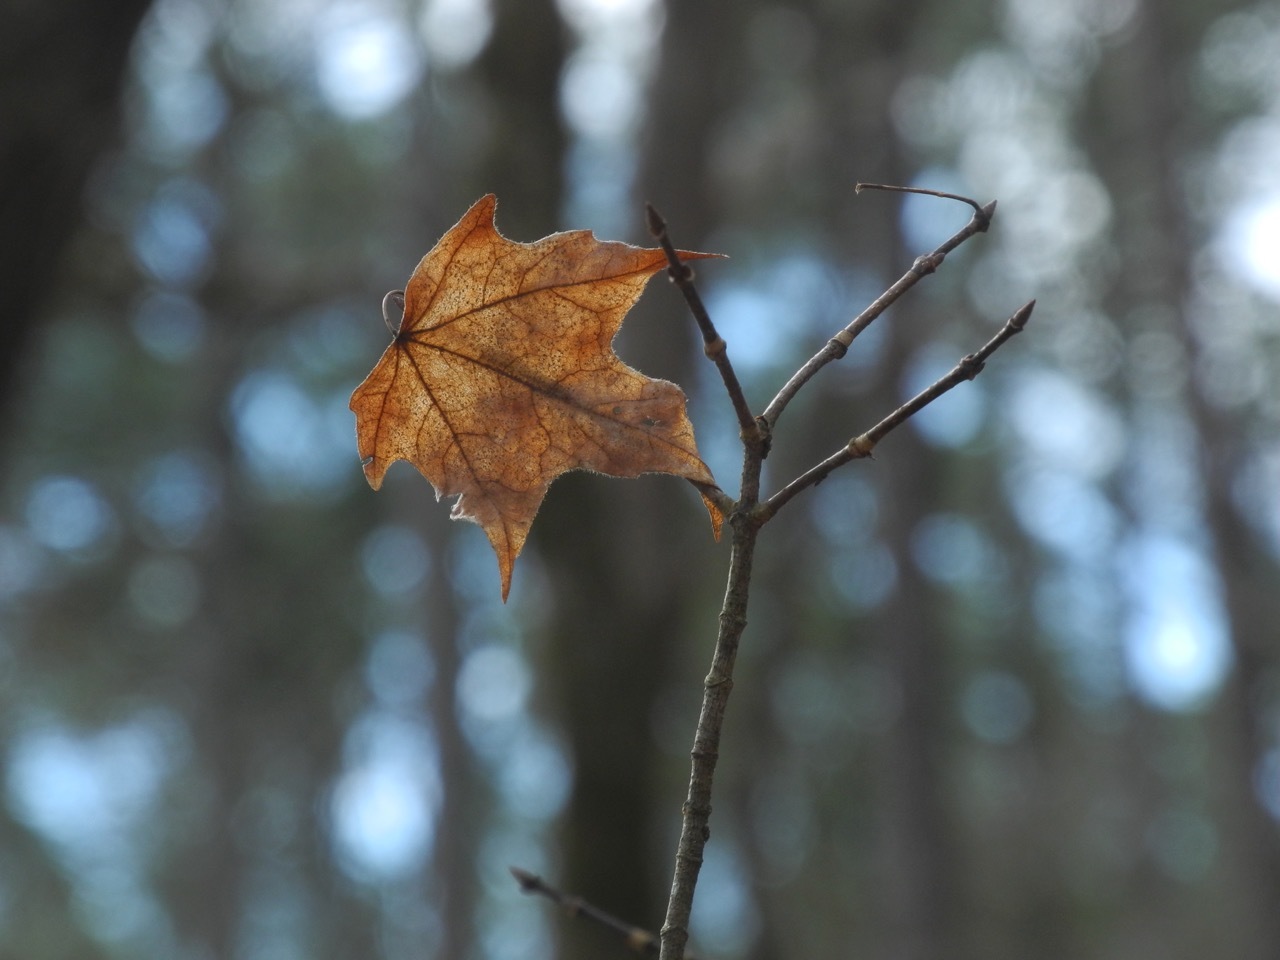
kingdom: Plantae
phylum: Tracheophyta
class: Magnoliopsida
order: Sapindales
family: Sapindaceae
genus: Acer
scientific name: Acer floridanum
